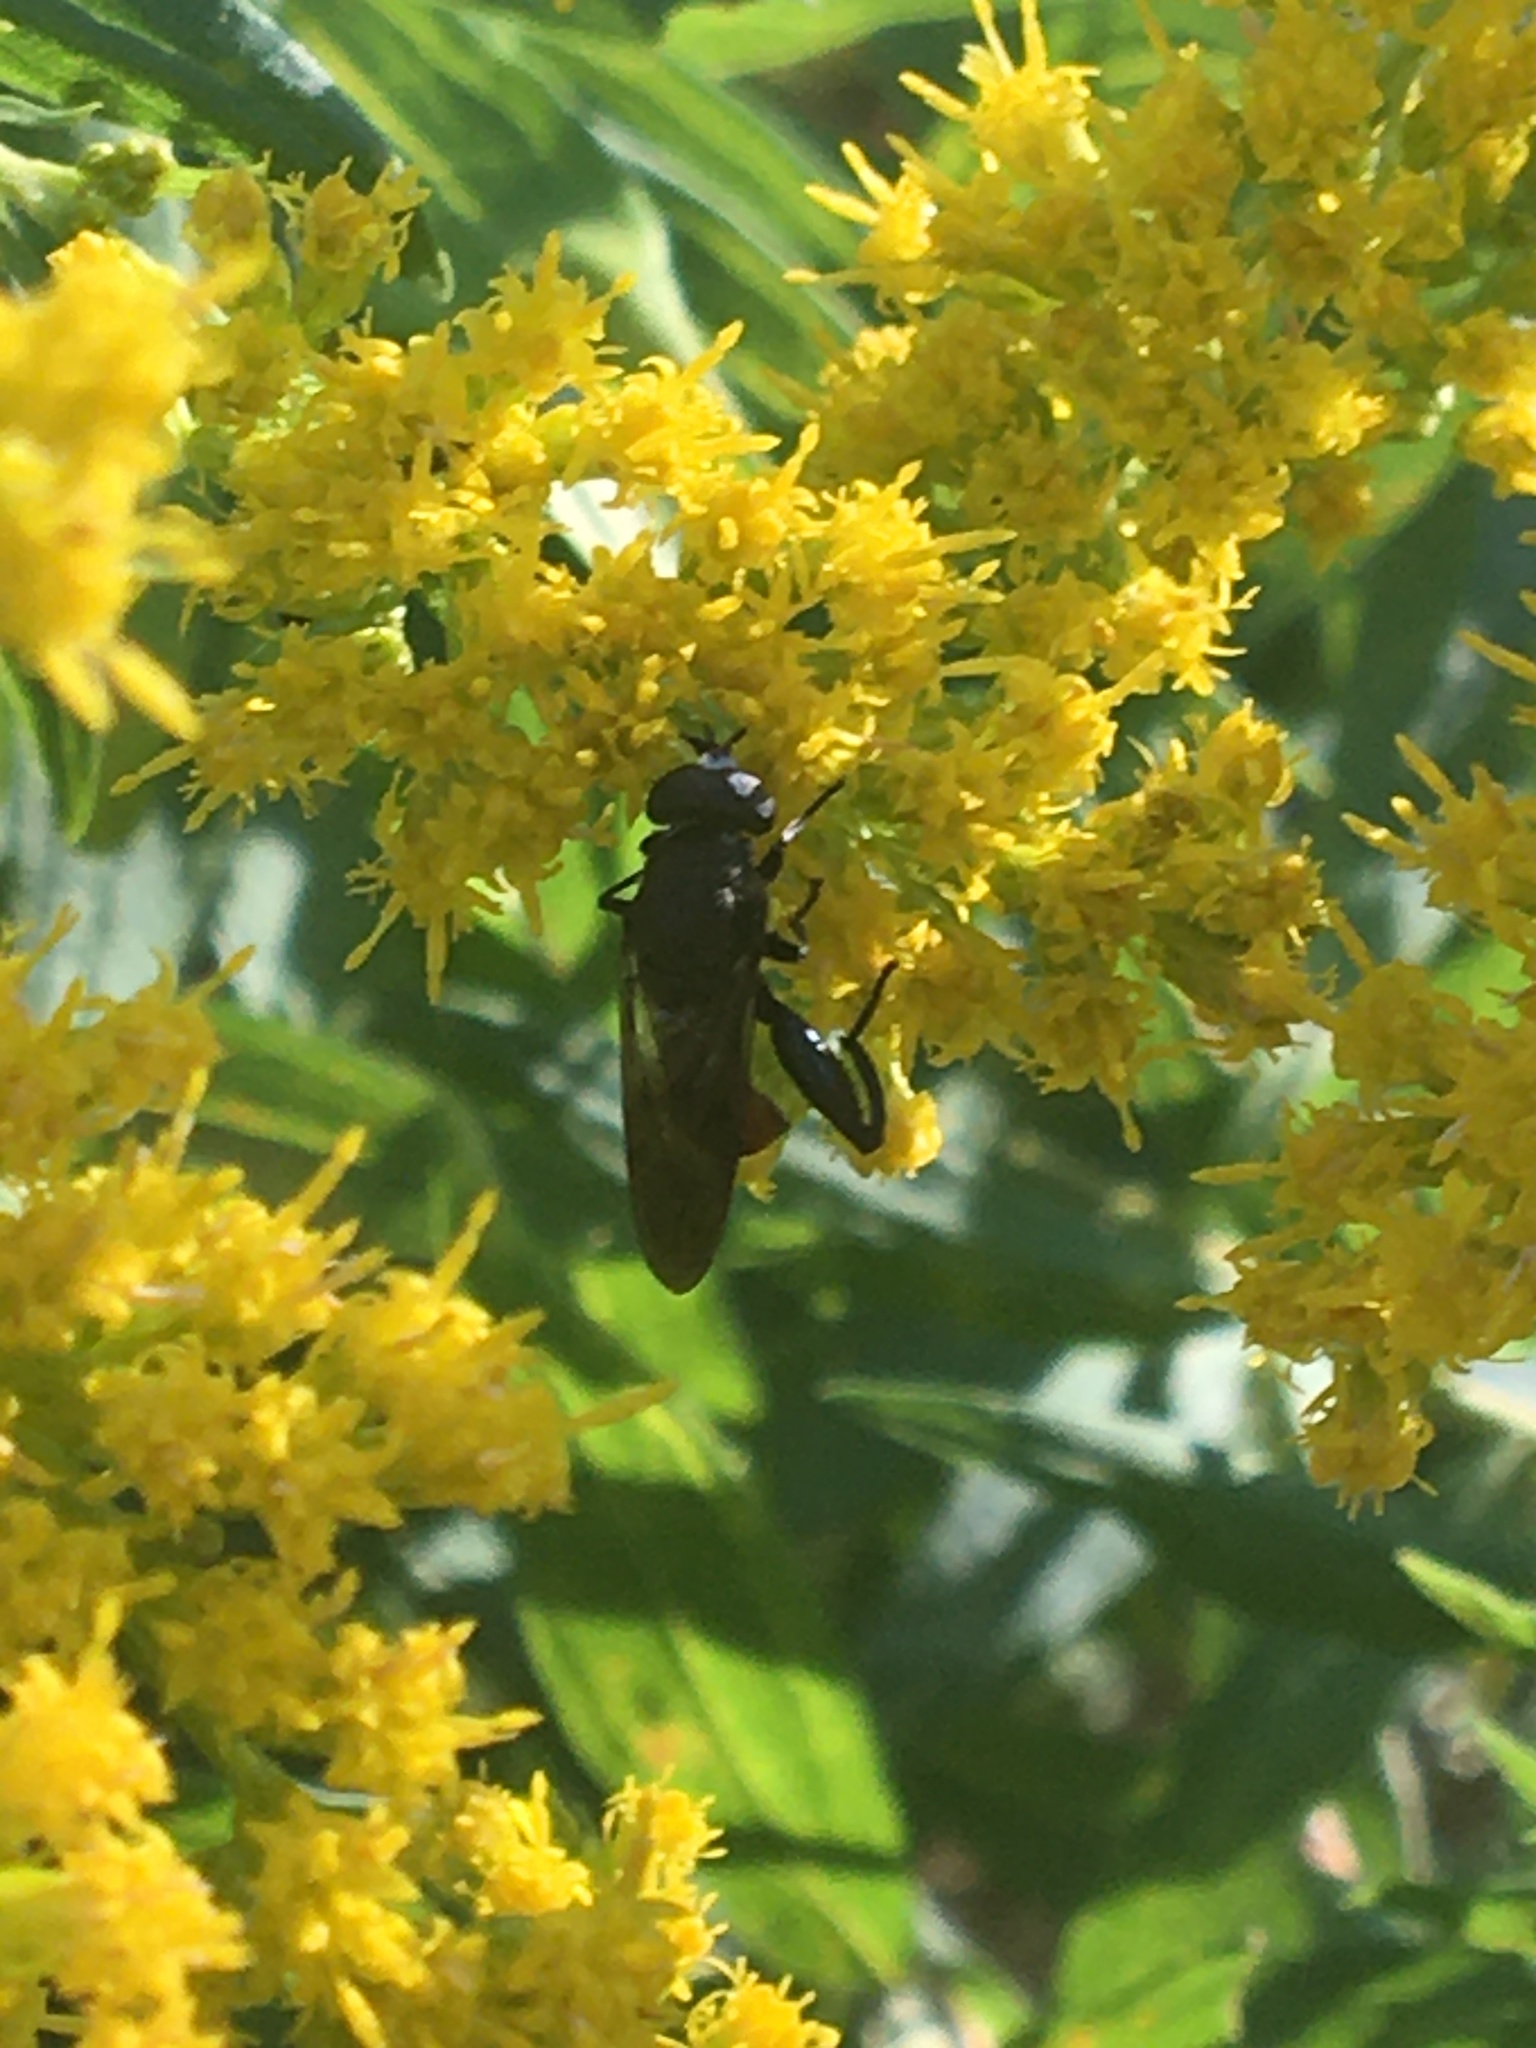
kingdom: Animalia
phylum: Arthropoda
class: Insecta
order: Diptera
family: Syrphidae
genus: Xylotomima
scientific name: Xylotomima
